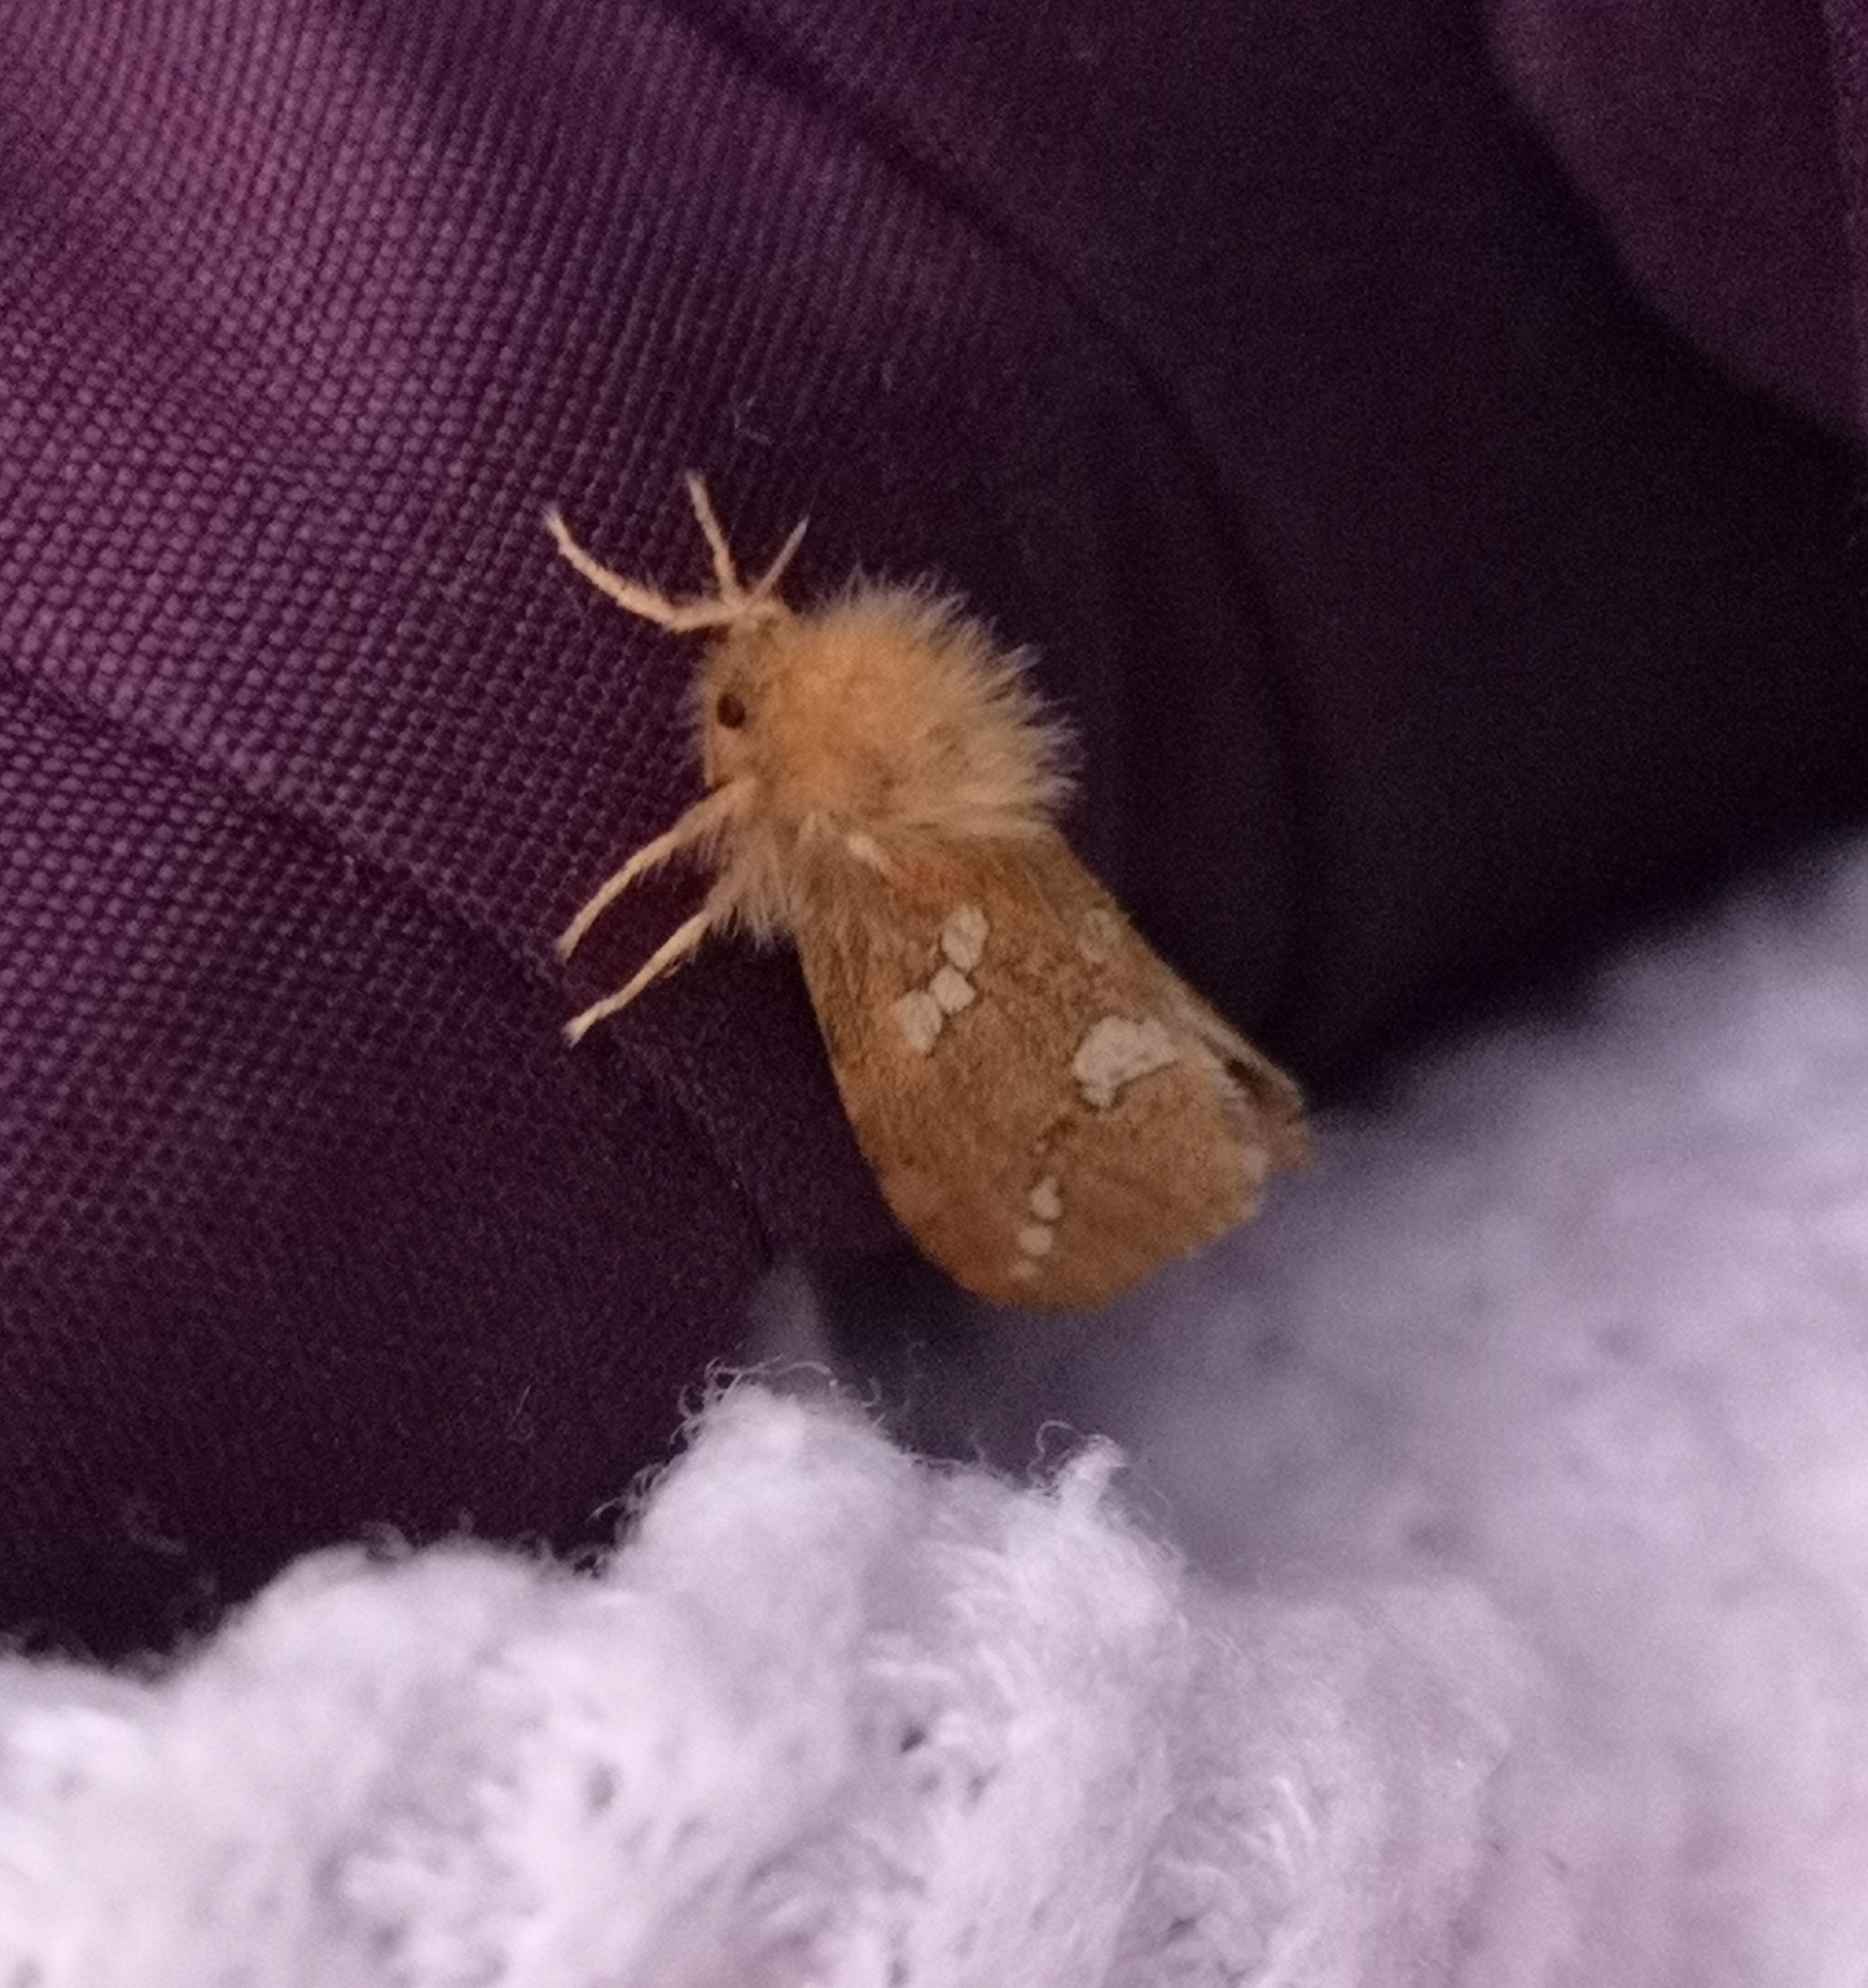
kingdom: Animalia
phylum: Arthropoda
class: Insecta
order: Lepidoptera
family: Hepialidae
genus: Phymatopus
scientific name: Phymatopus hecta
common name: Gold swift
